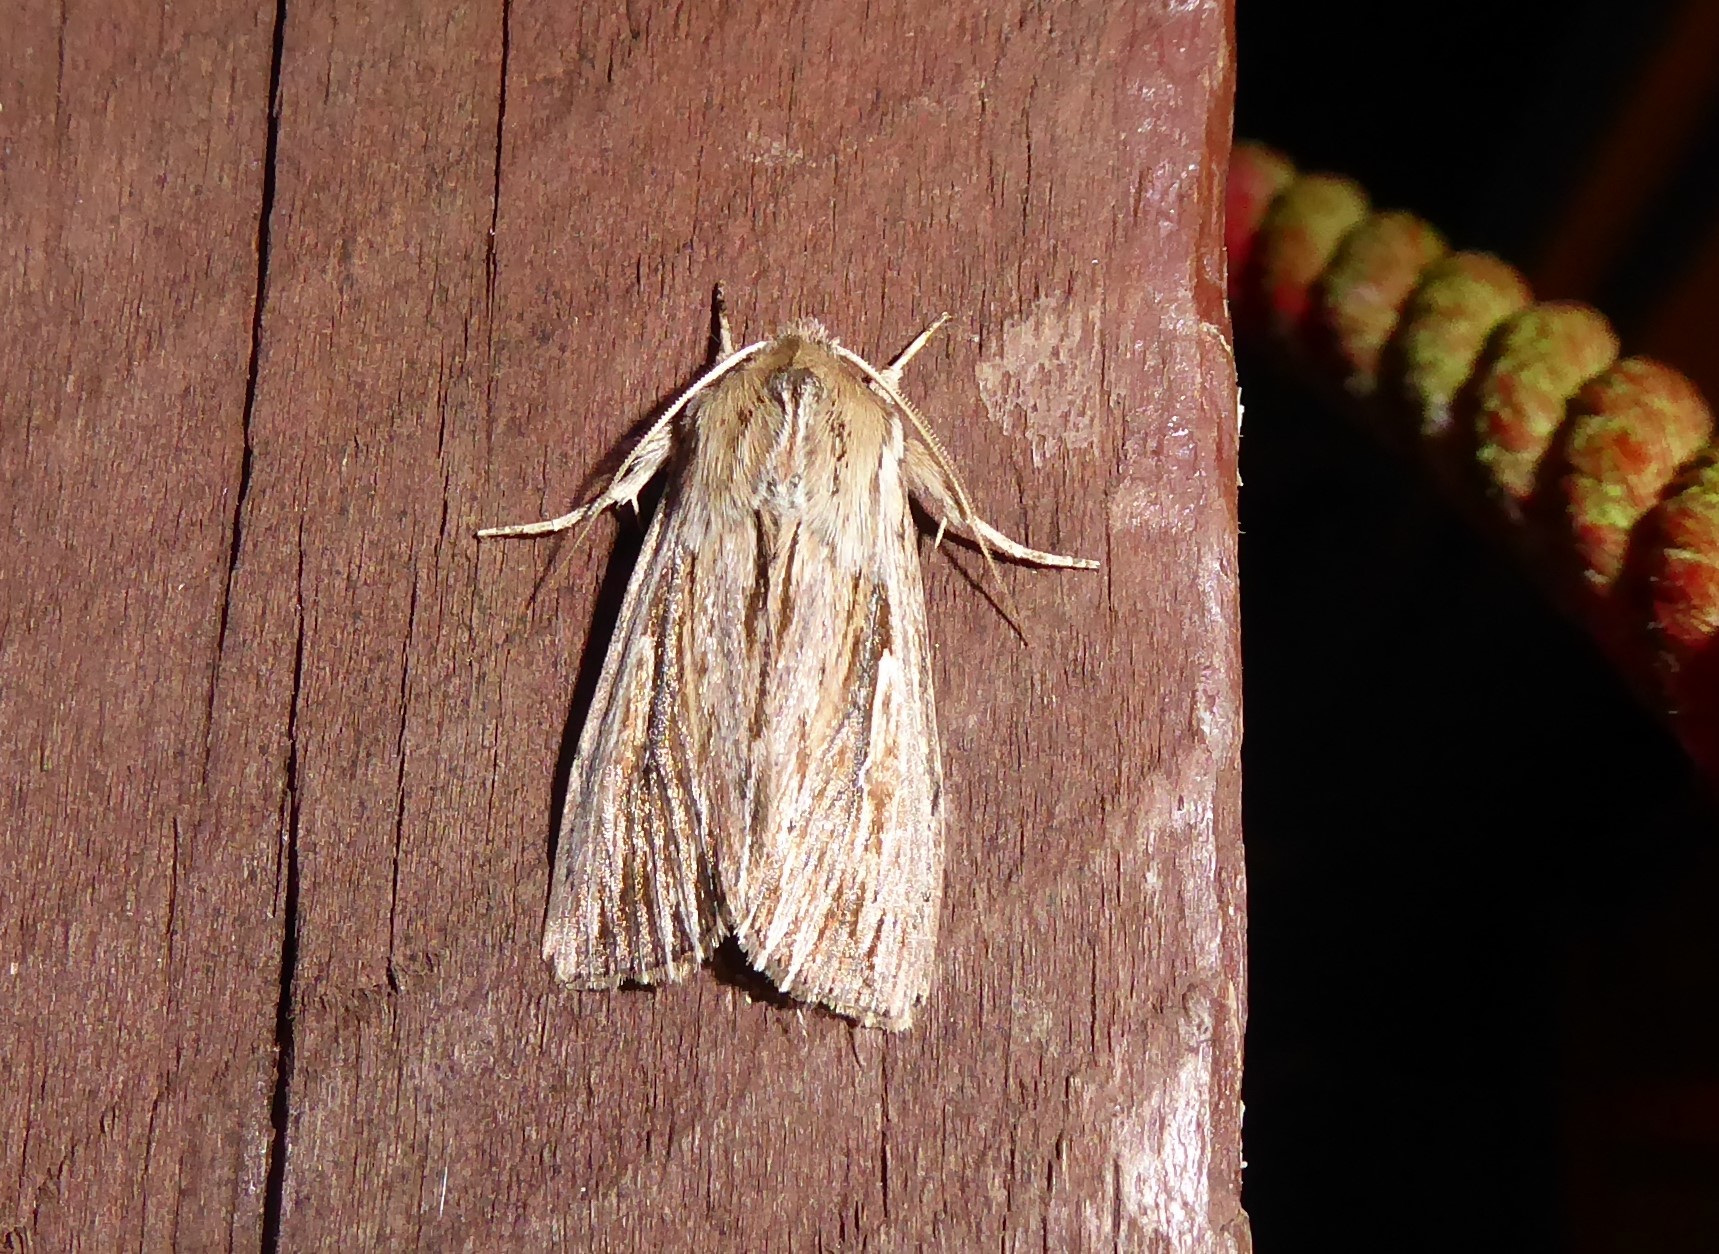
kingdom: Animalia
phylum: Arthropoda
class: Insecta
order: Lepidoptera
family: Noctuidae
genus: Persectania
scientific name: Persectania aversa
